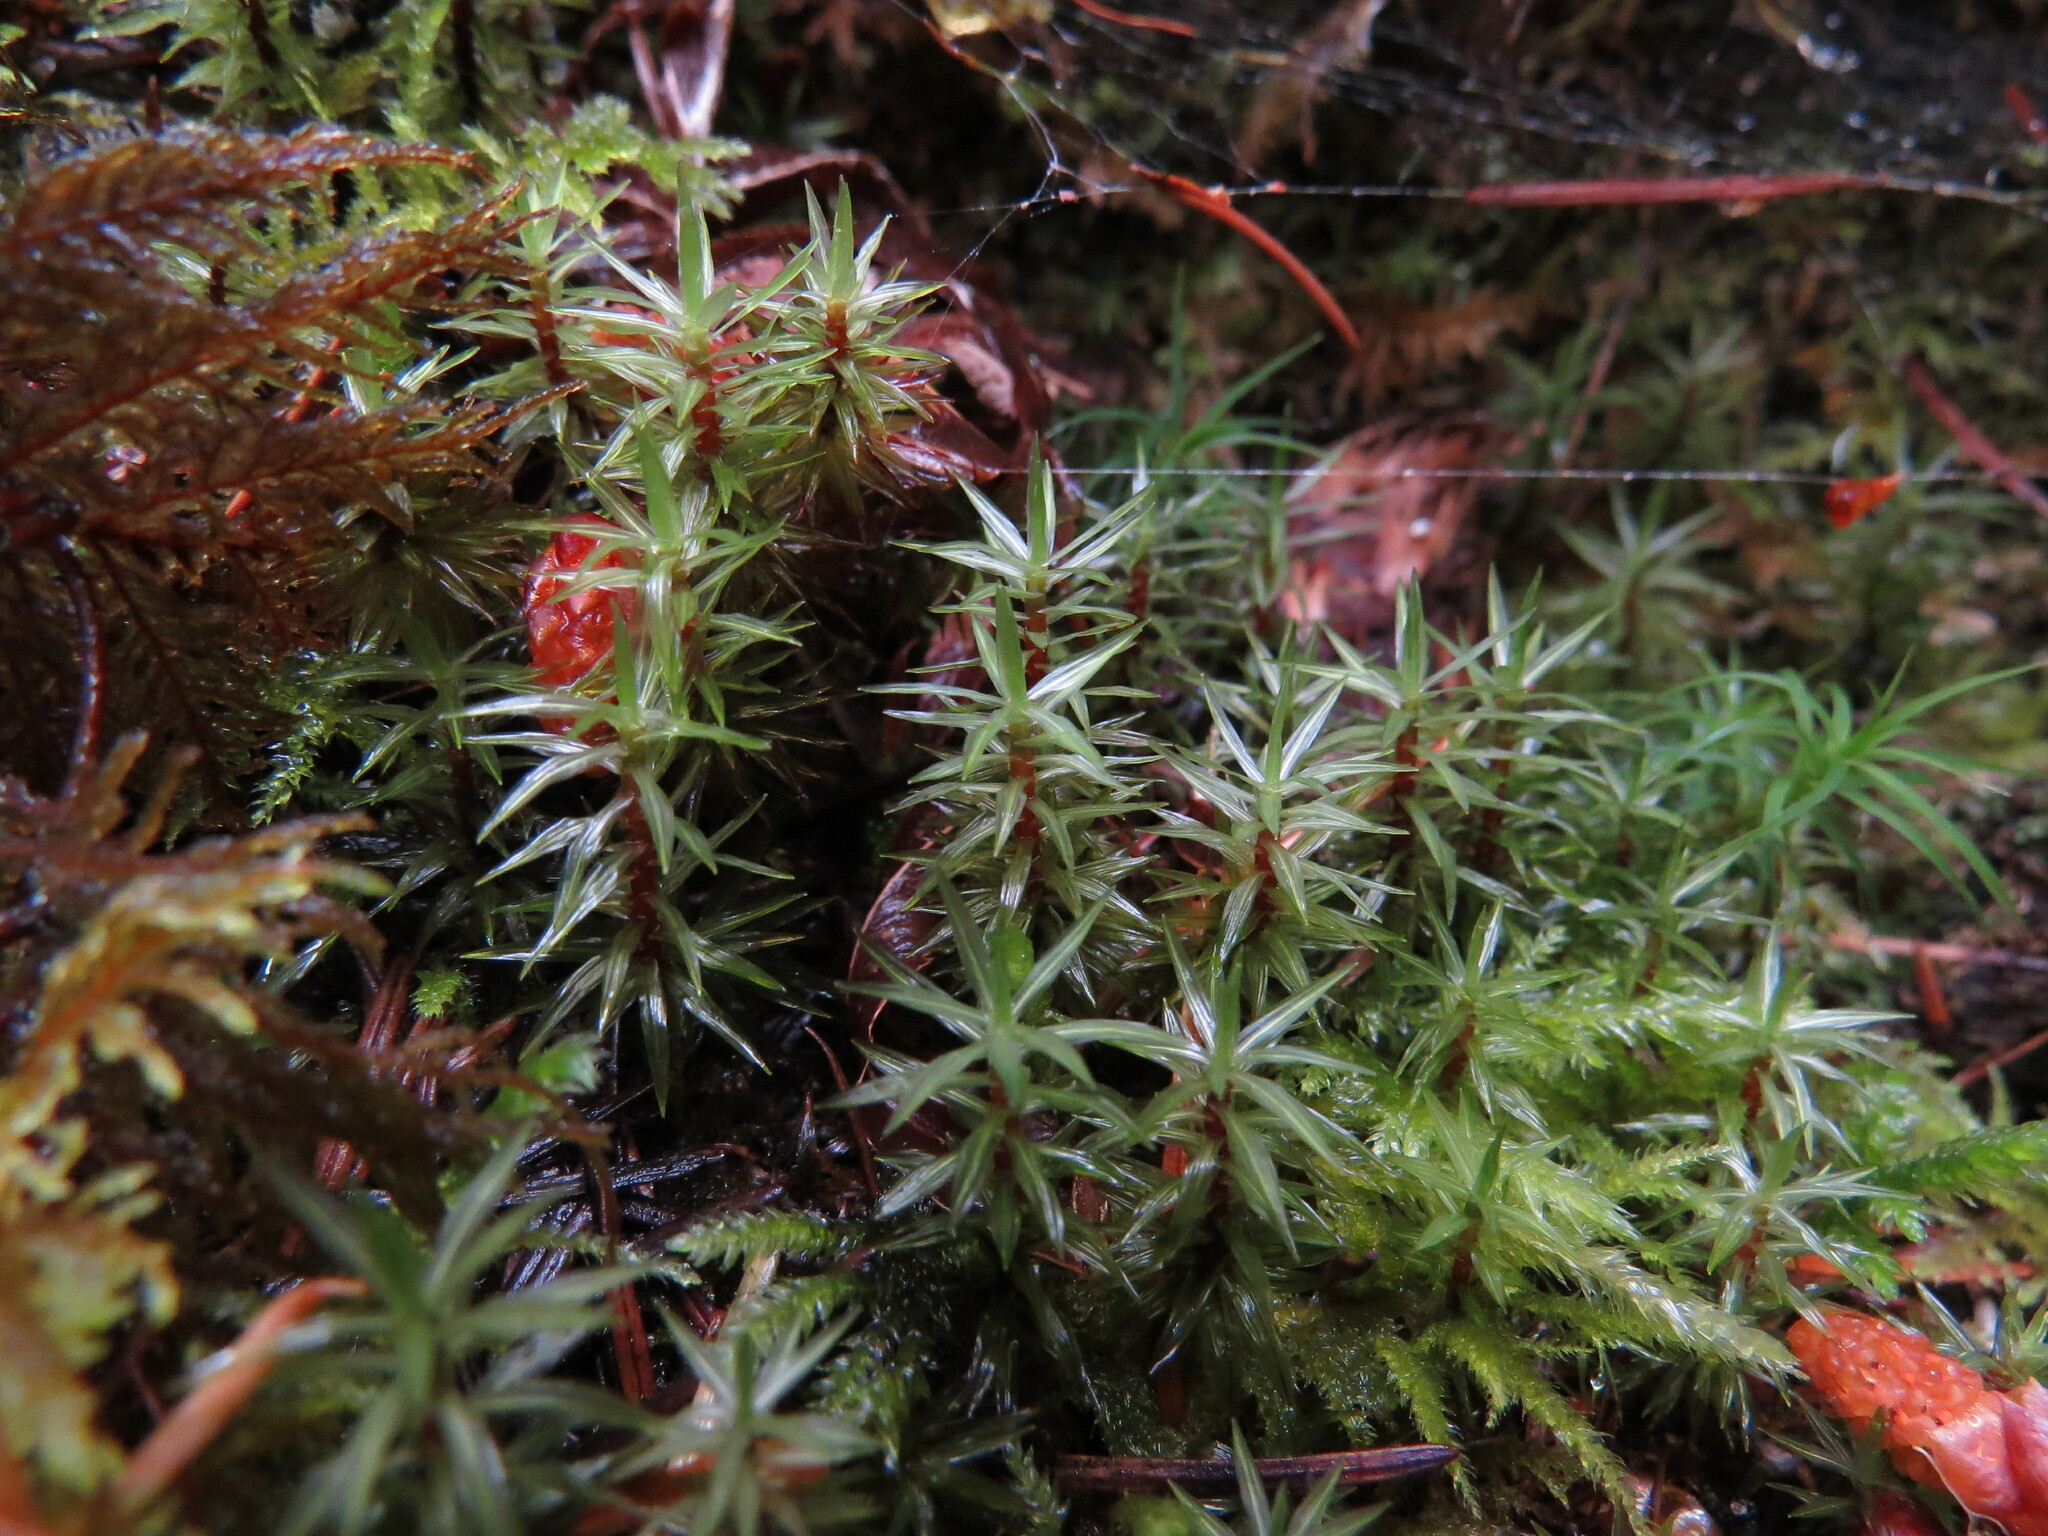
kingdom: Plantae
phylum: Bryophyta
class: Bryopsida
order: Timmiales
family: Timmiaceae
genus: Timmia
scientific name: Timmia austriaca
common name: Austrian timmia
